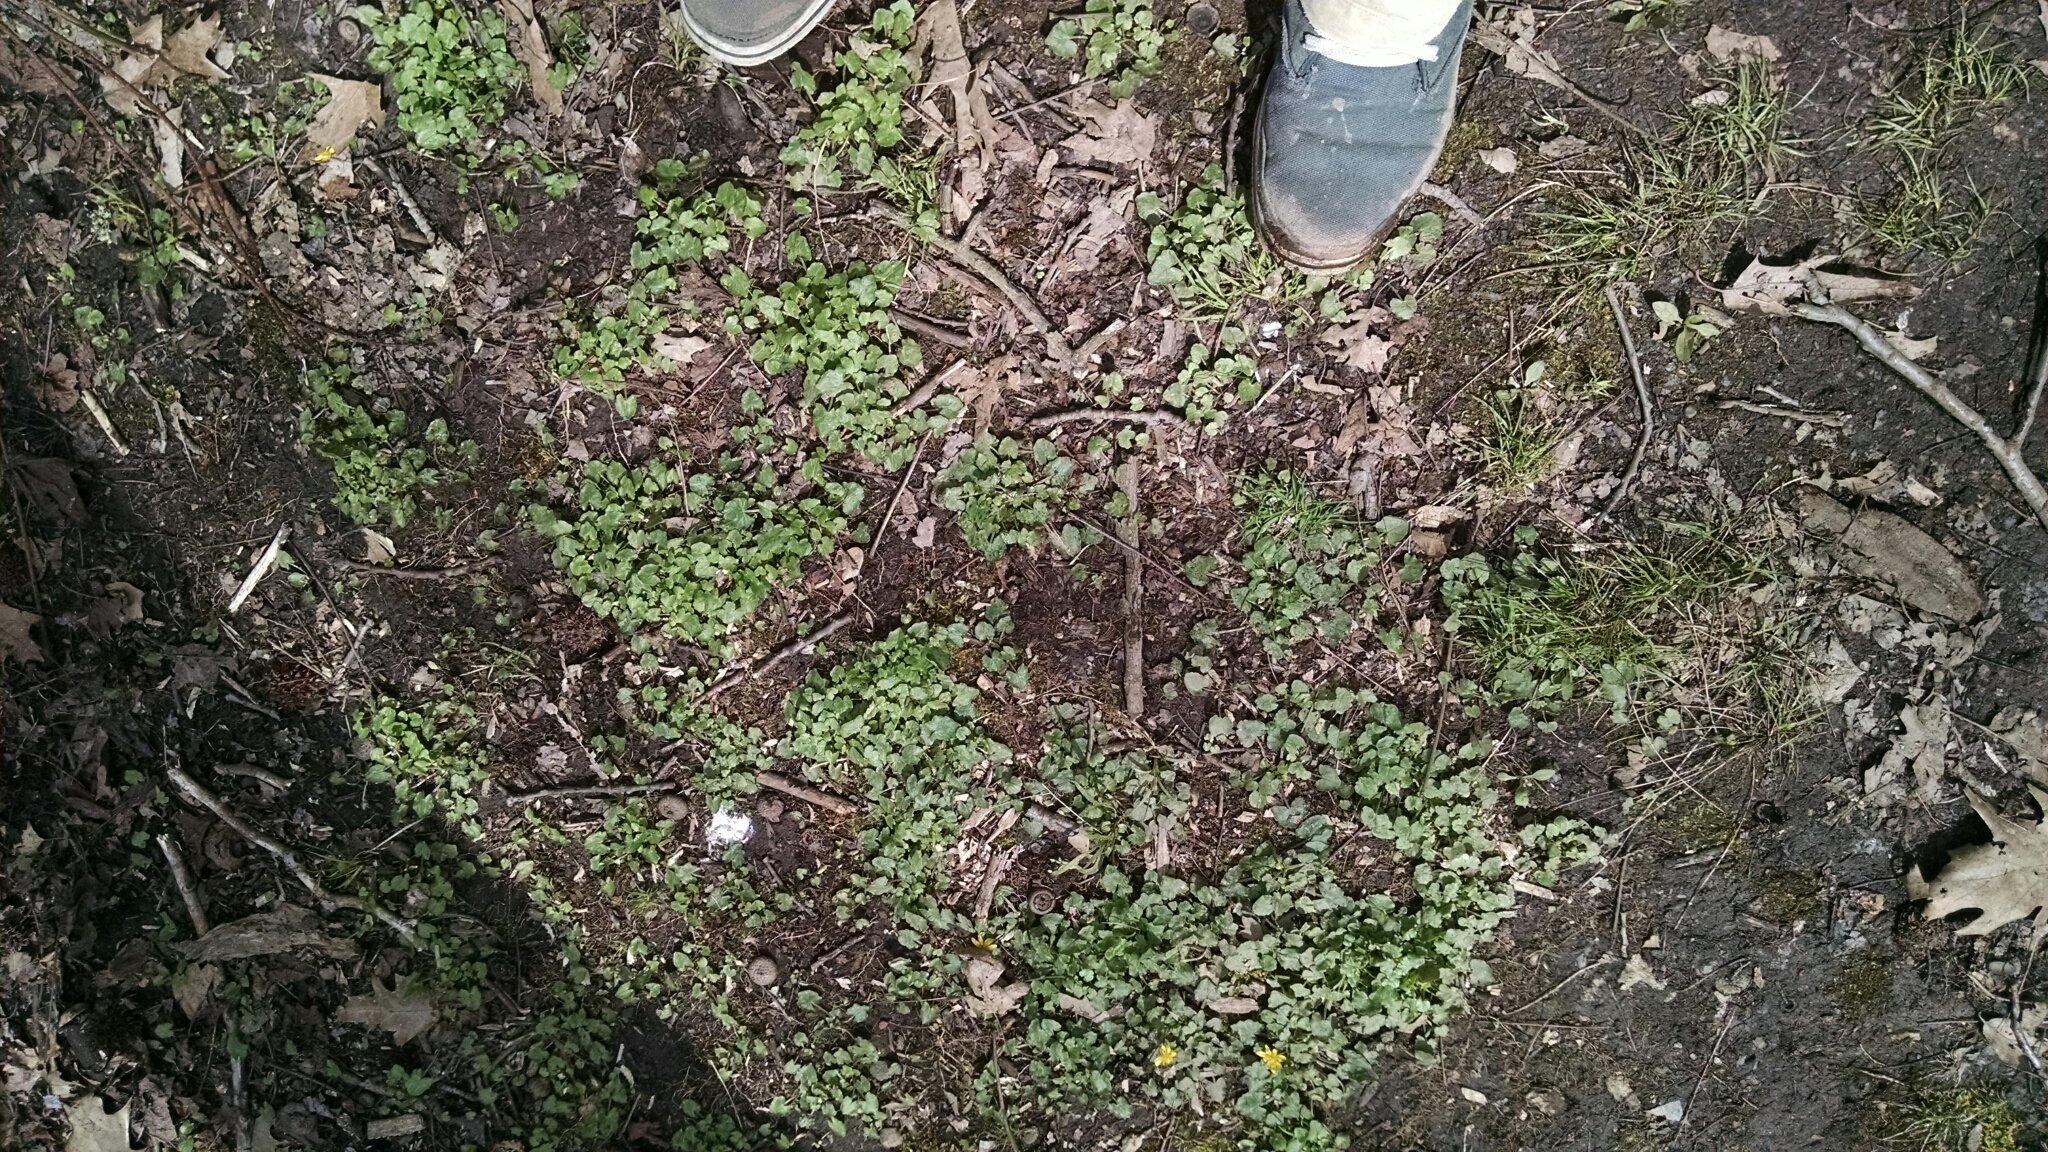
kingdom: Plantae
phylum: Tracheophyta
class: Magnoliopsida
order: Ranunculales
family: Ranunculaceae
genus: Ficaria
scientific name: Ficaria verna
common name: Lesser celandine
